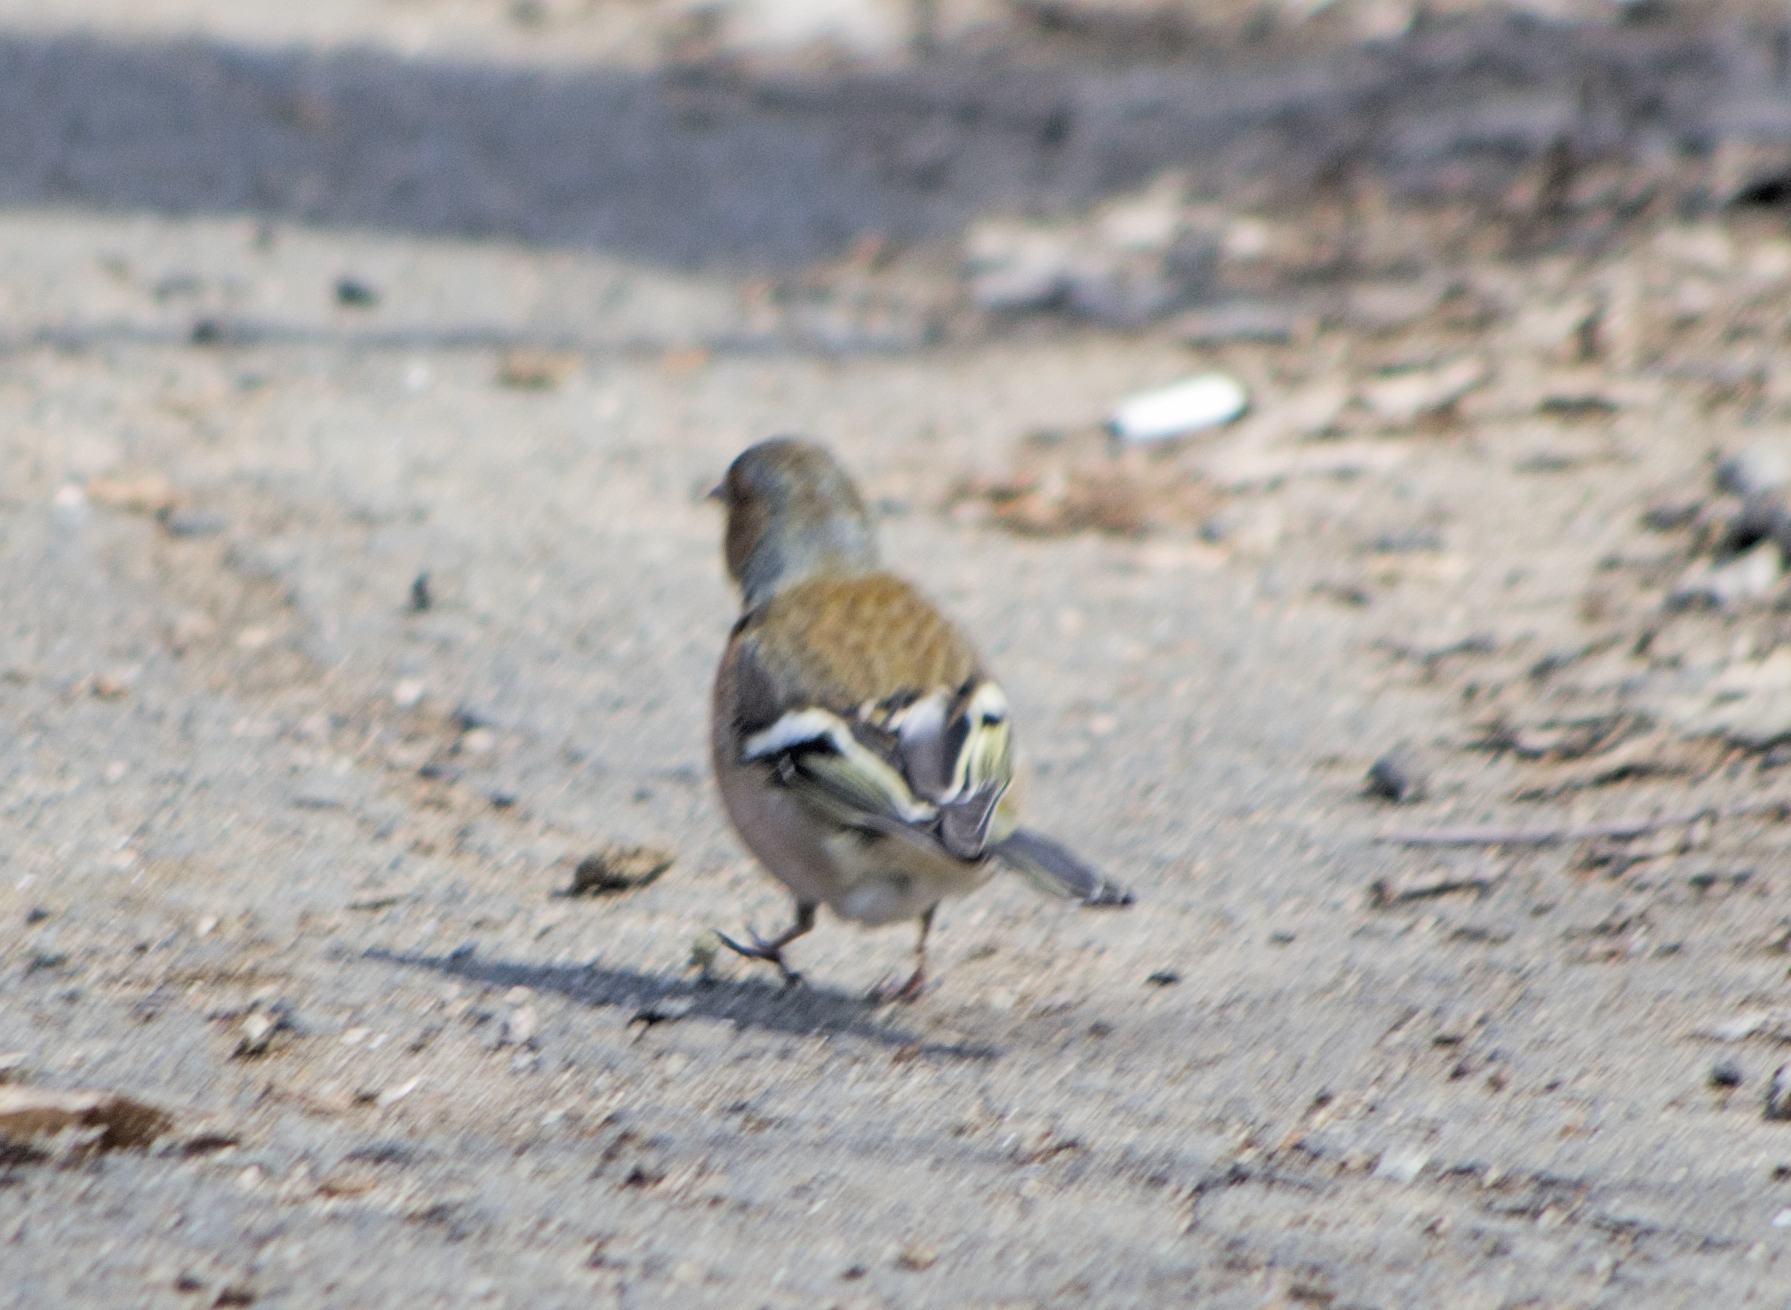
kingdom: Animalia
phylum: Chordata
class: Aves
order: Passeriformes
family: Fringillidae
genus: Fringilla
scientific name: Fringilla coelebs
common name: Common chaffinch
